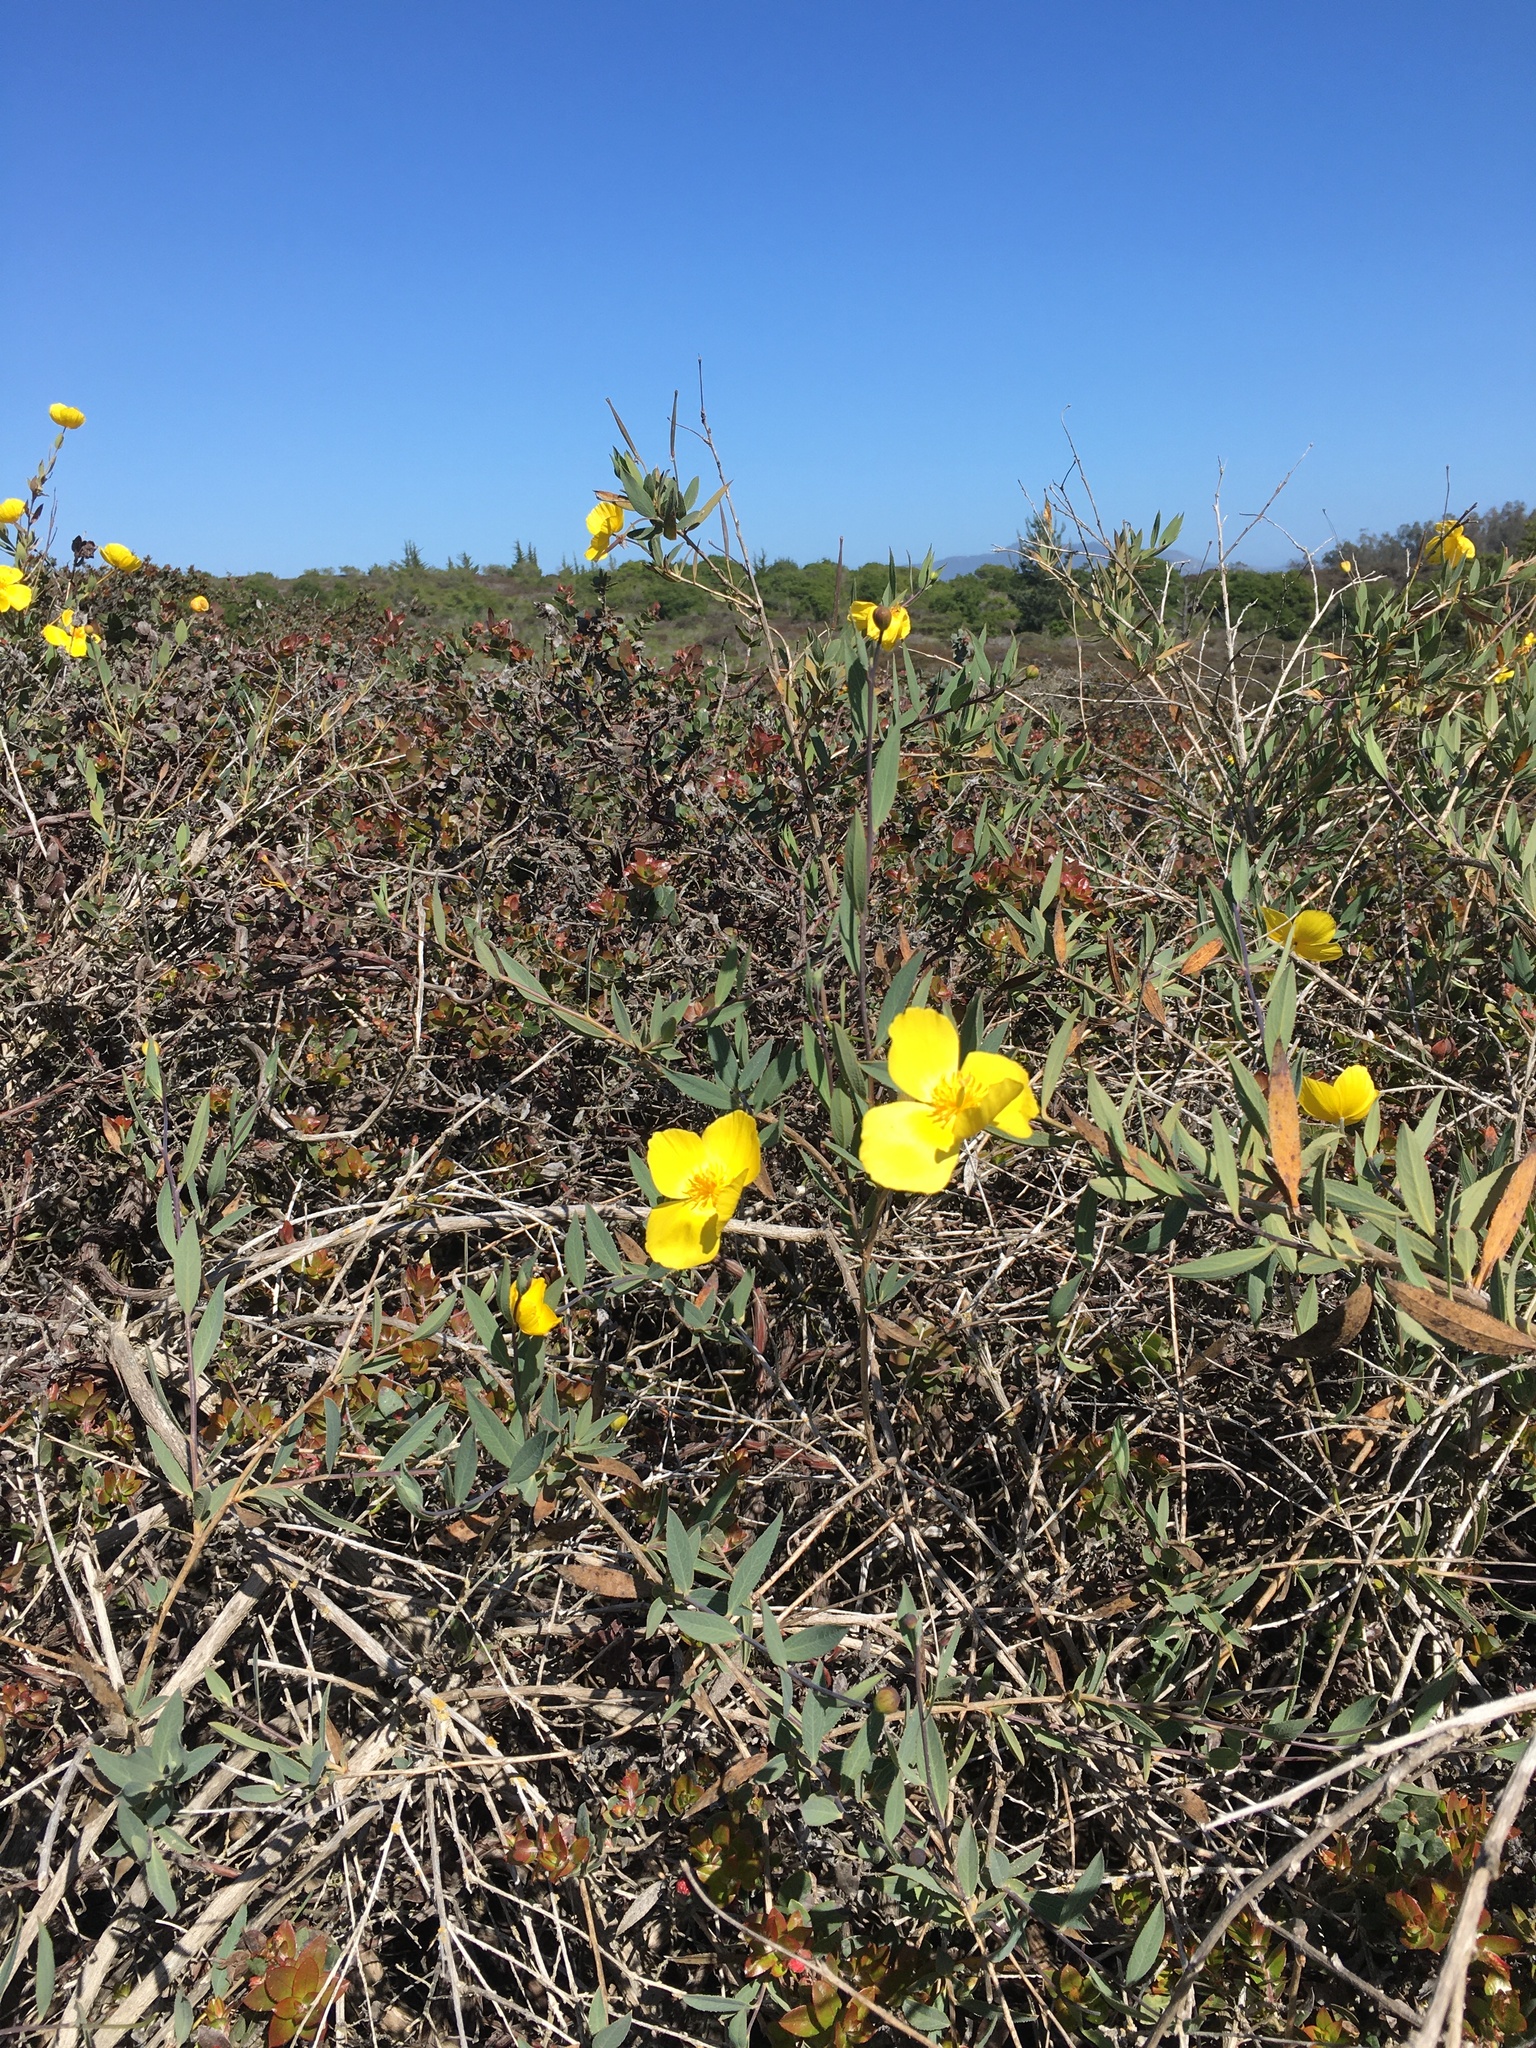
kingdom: Plantae
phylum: Tracheophyta
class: Magnoliopsida
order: Ranunculales
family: Papaveraceae
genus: Dendromecon
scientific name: Dendromecon rigida
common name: Tree poppy
